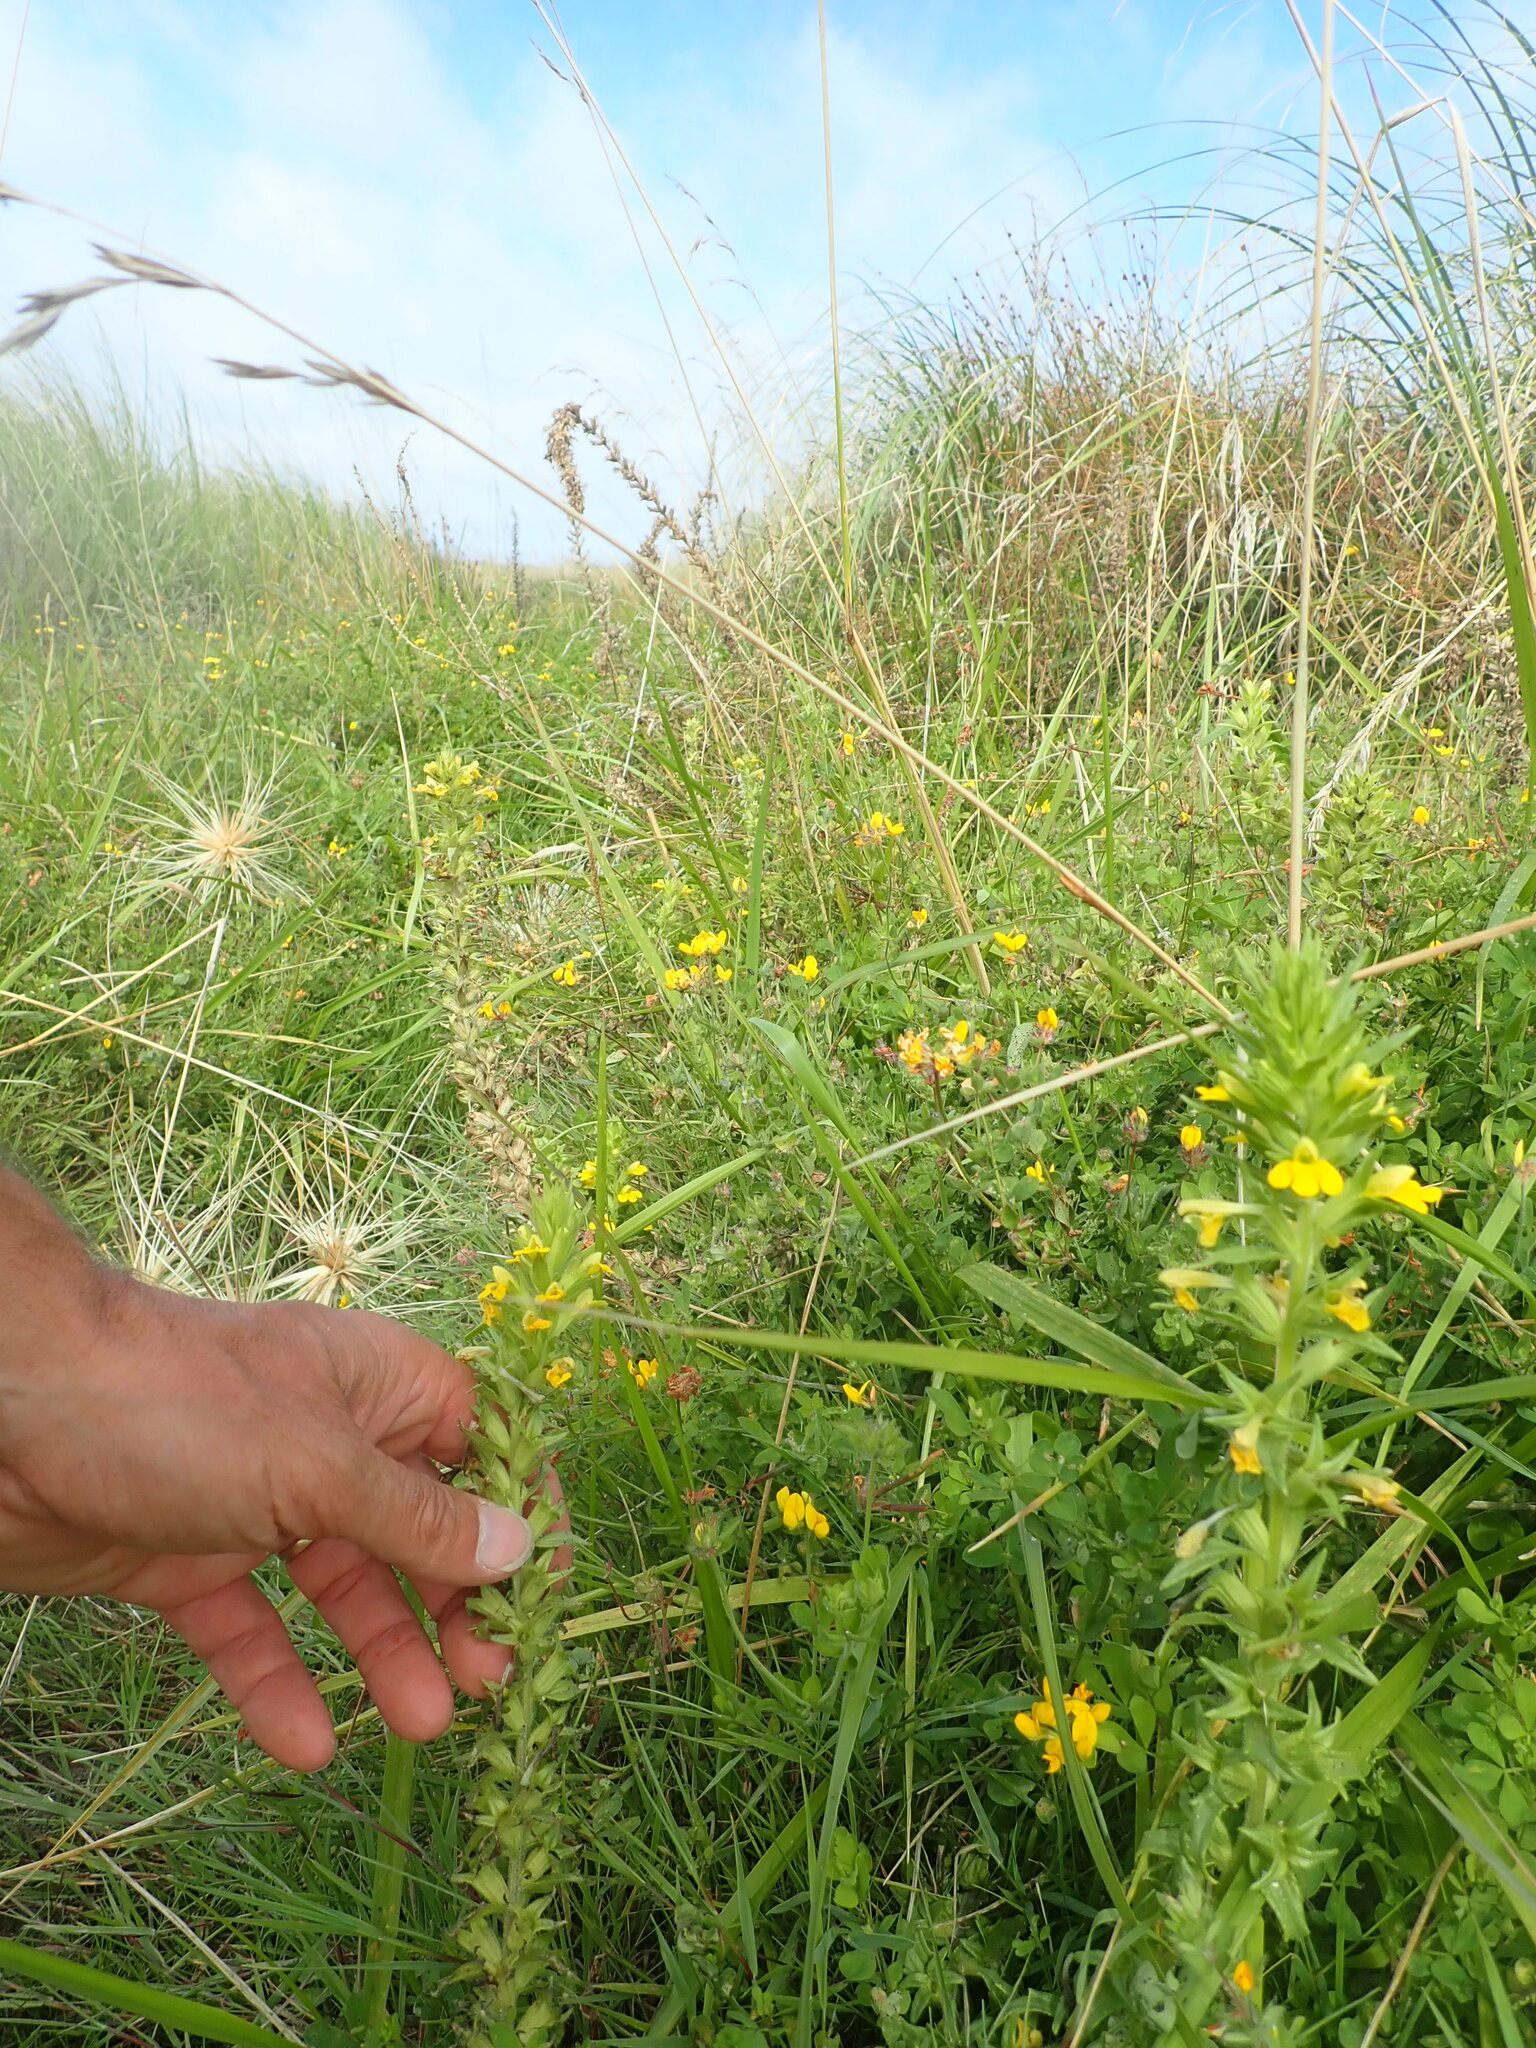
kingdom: Plantae
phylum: Tracheophyta
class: Magnoliopsida
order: Lamiales
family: Orobanchaceae
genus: Bellardia
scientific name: Bellardia viscosa
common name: Sticky parentucellia
